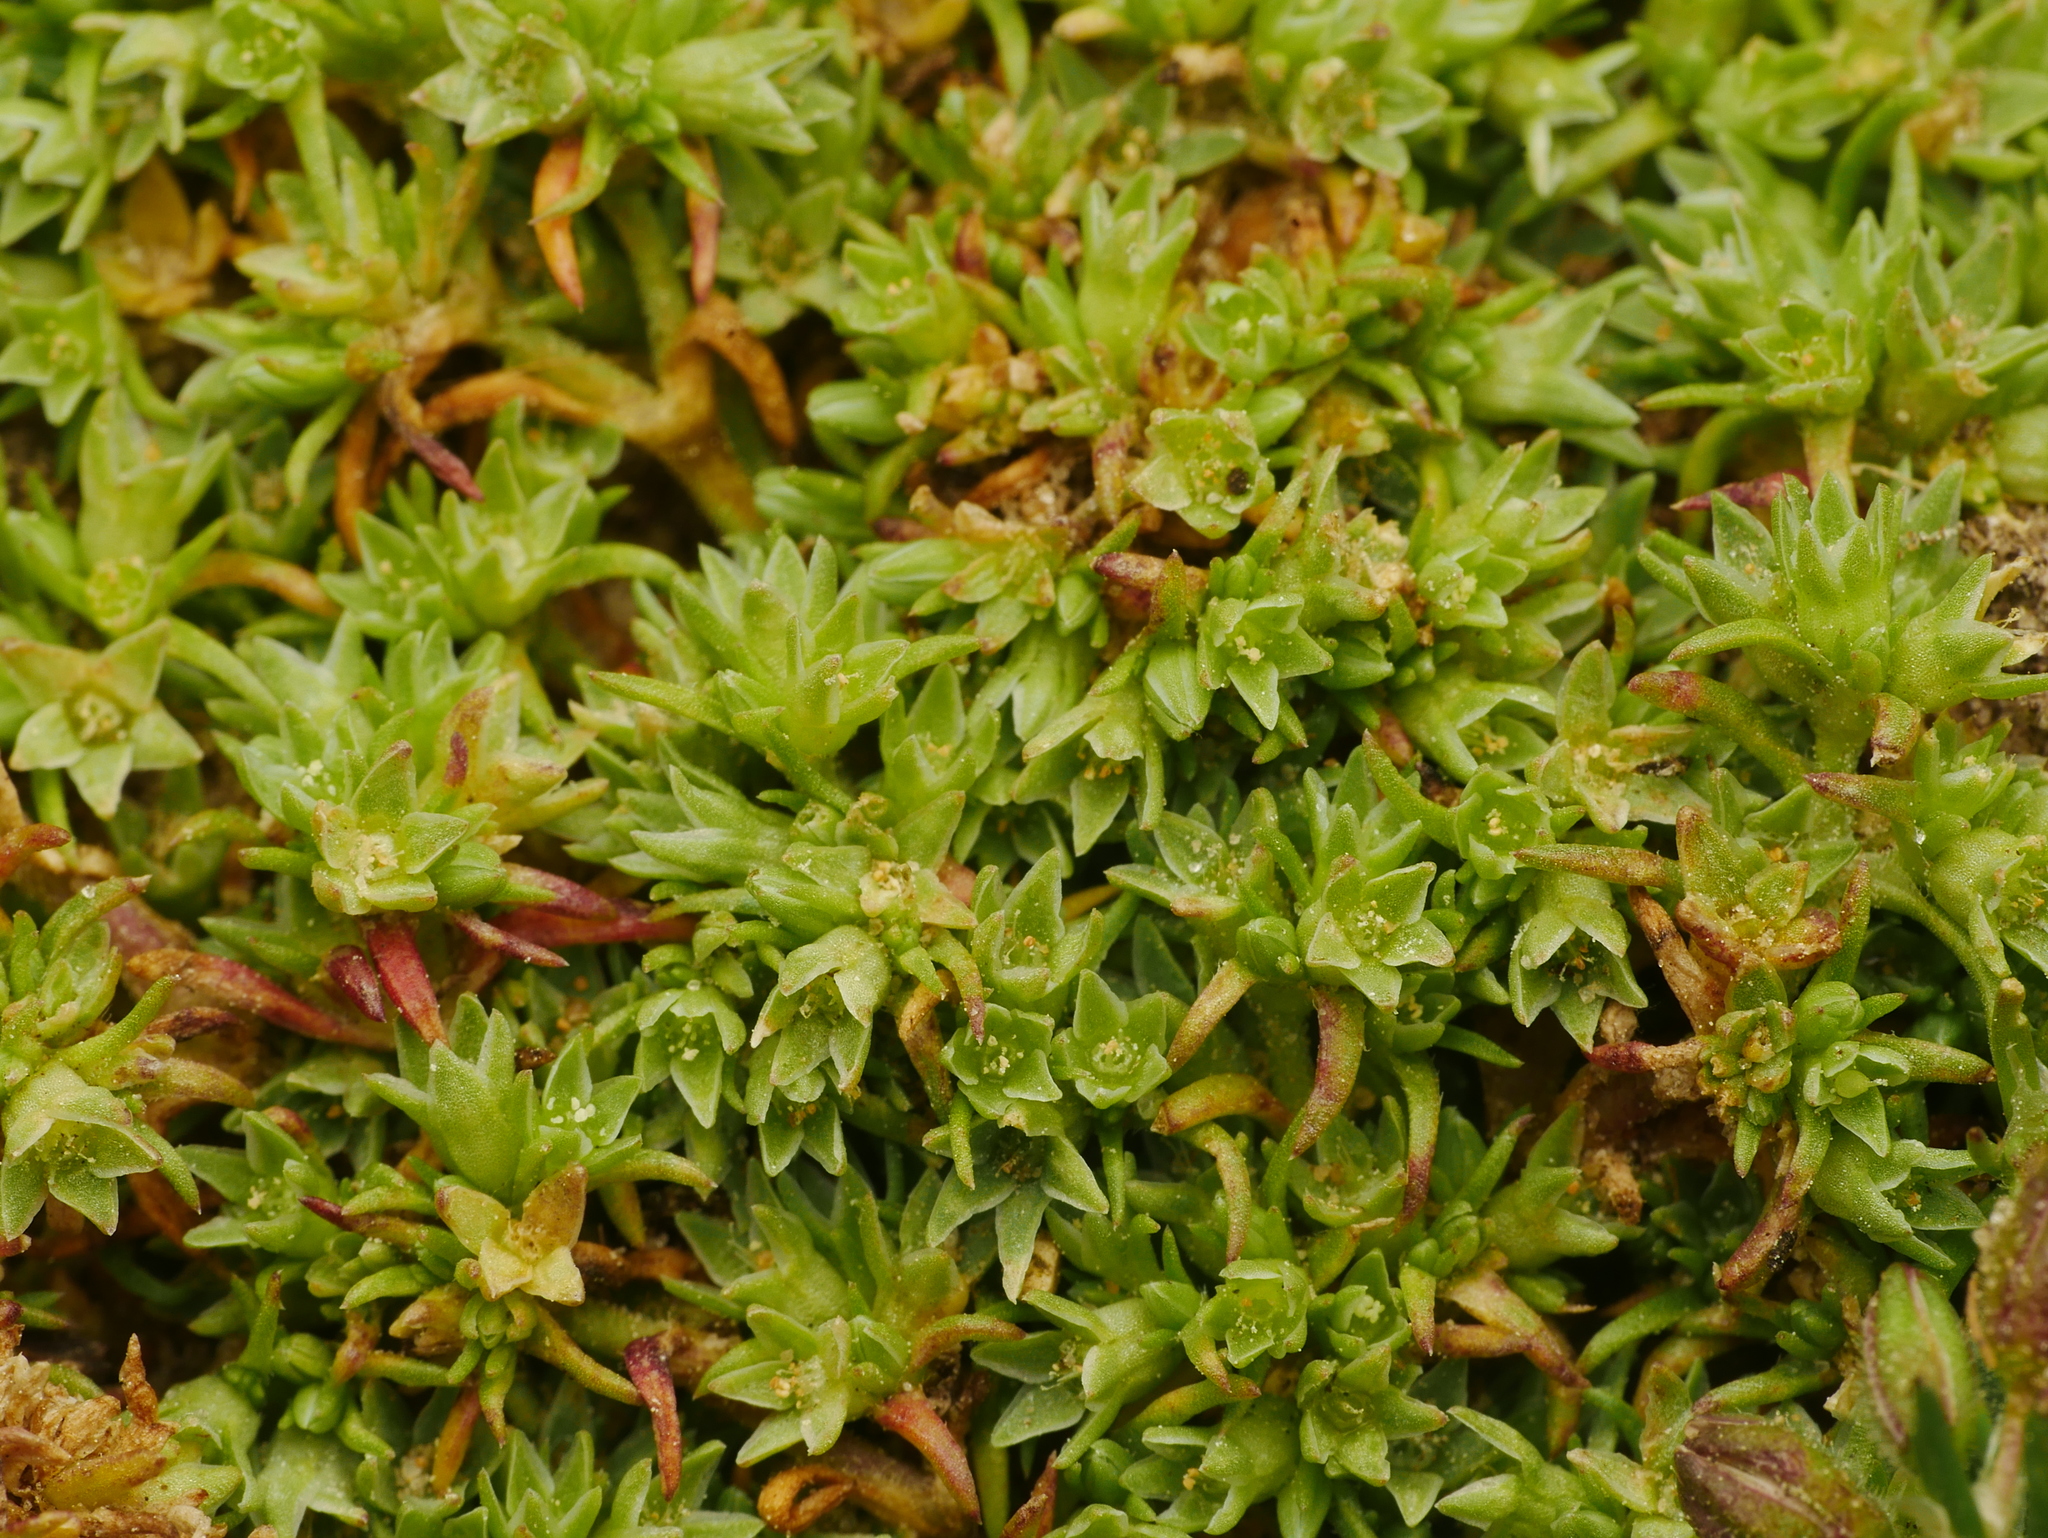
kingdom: Plantae
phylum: Tracheophyta
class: Magnoliopsida
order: Caryophyllales
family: Caryophyllaceae
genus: Scleranthus
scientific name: Scleranthus annuus
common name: Annual knawel
